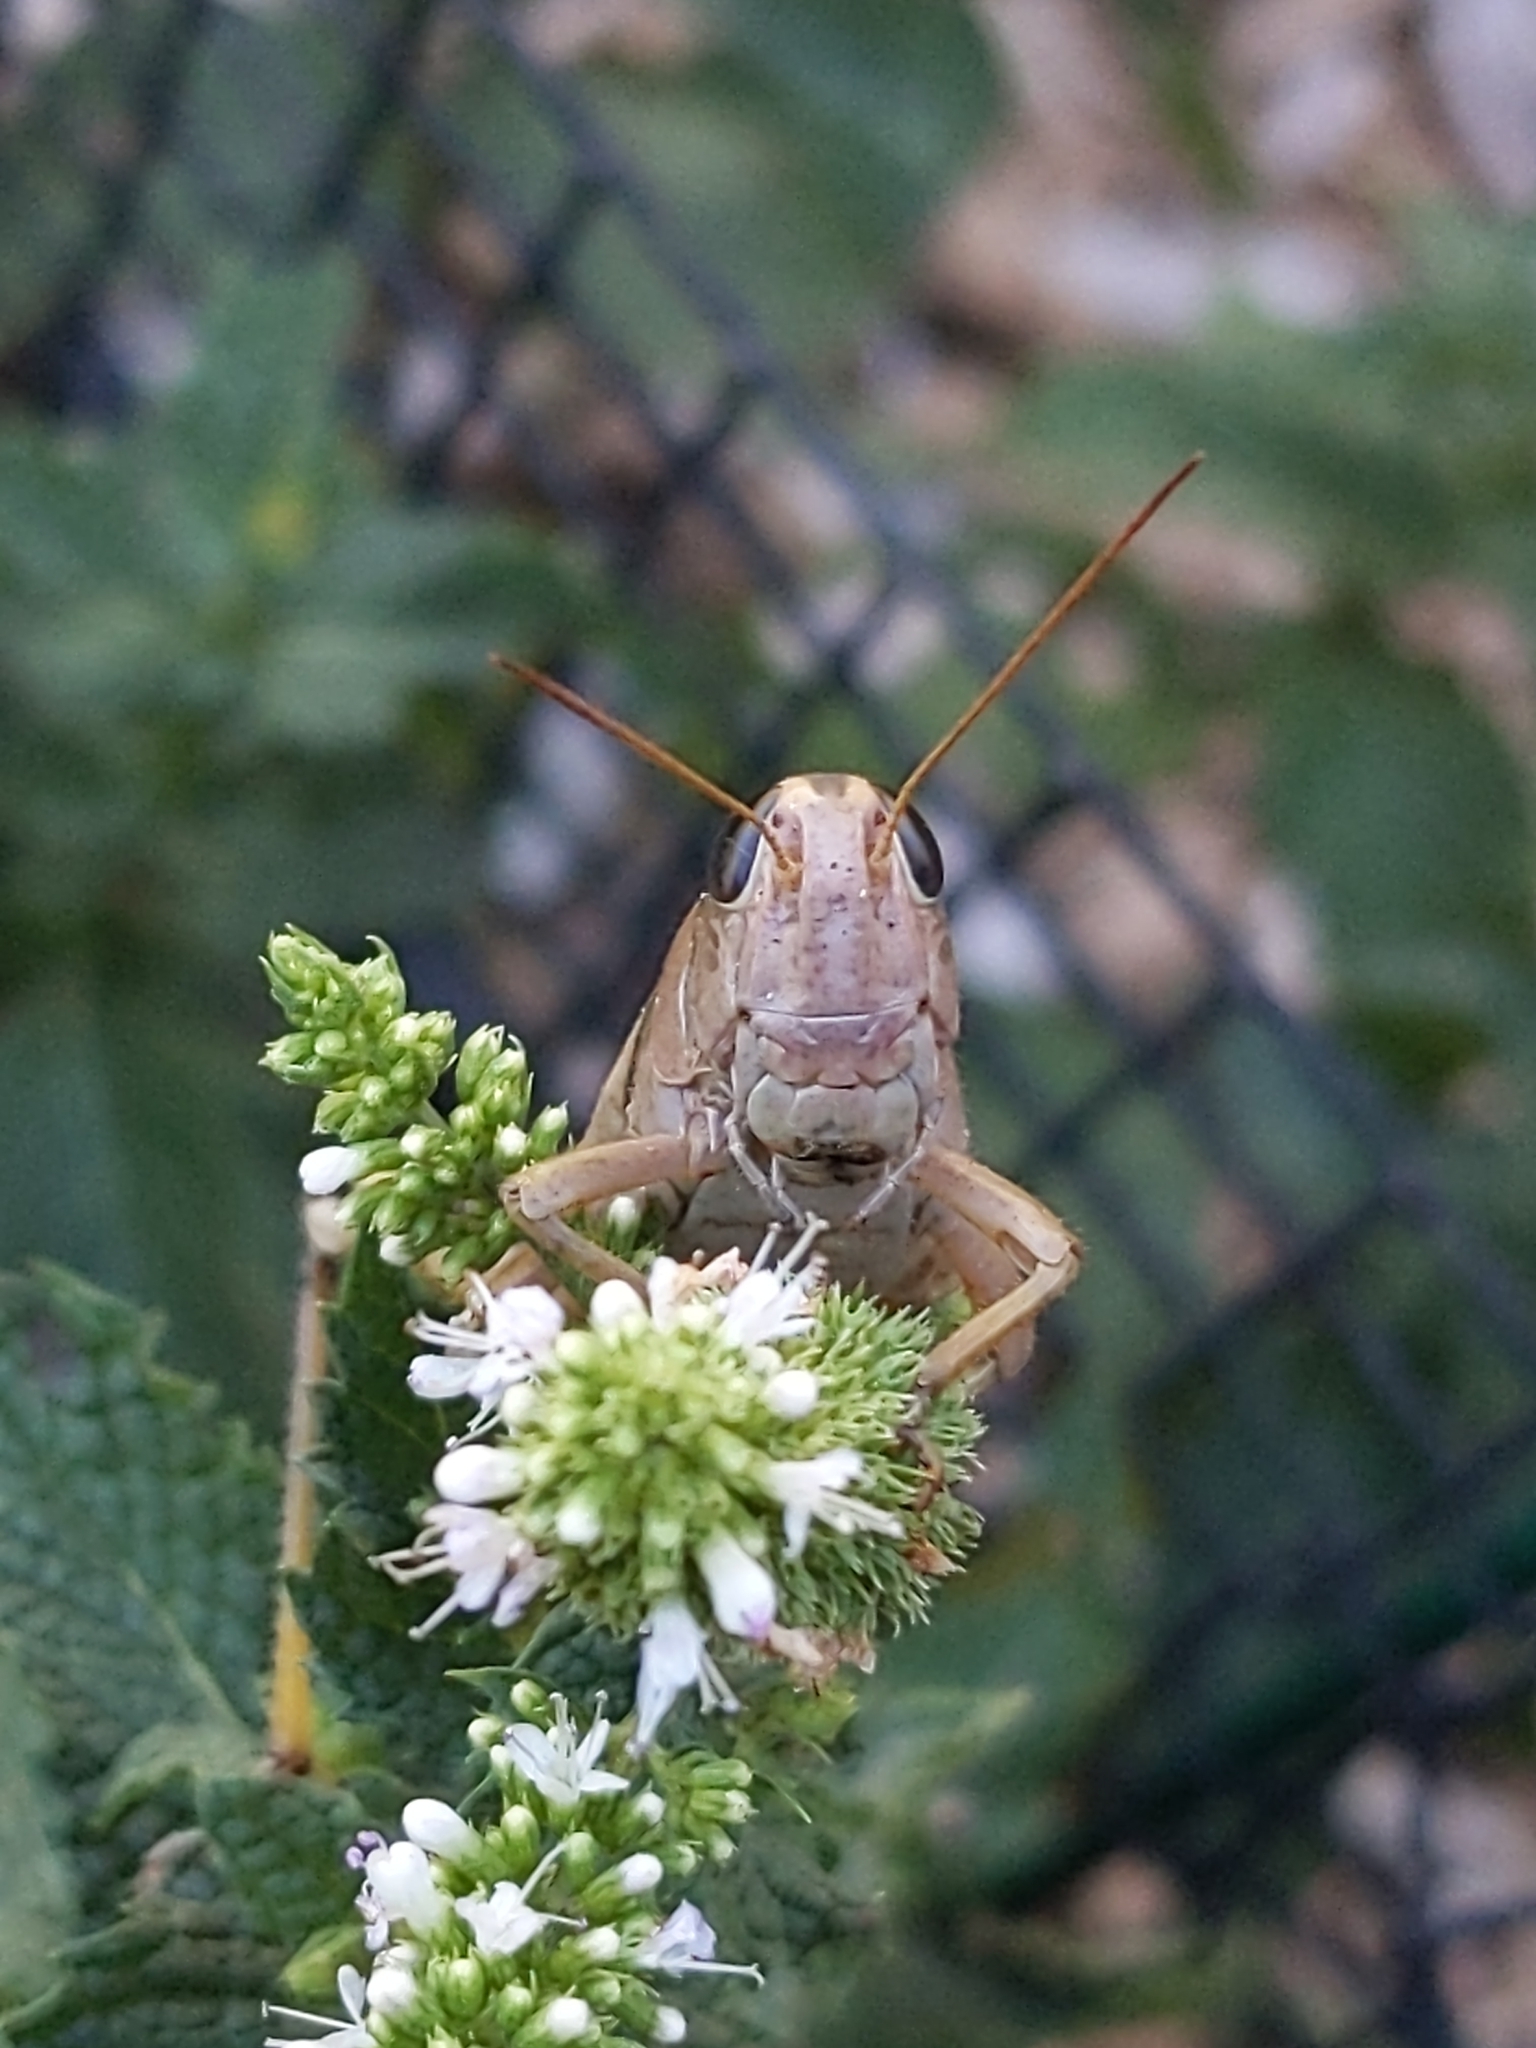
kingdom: Animalia
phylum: Arthropoda
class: Insecta
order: Orthoptera
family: Acrididae
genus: Melanoplus
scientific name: Melanoplus bivittatus
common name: Two-striped grasshopper
